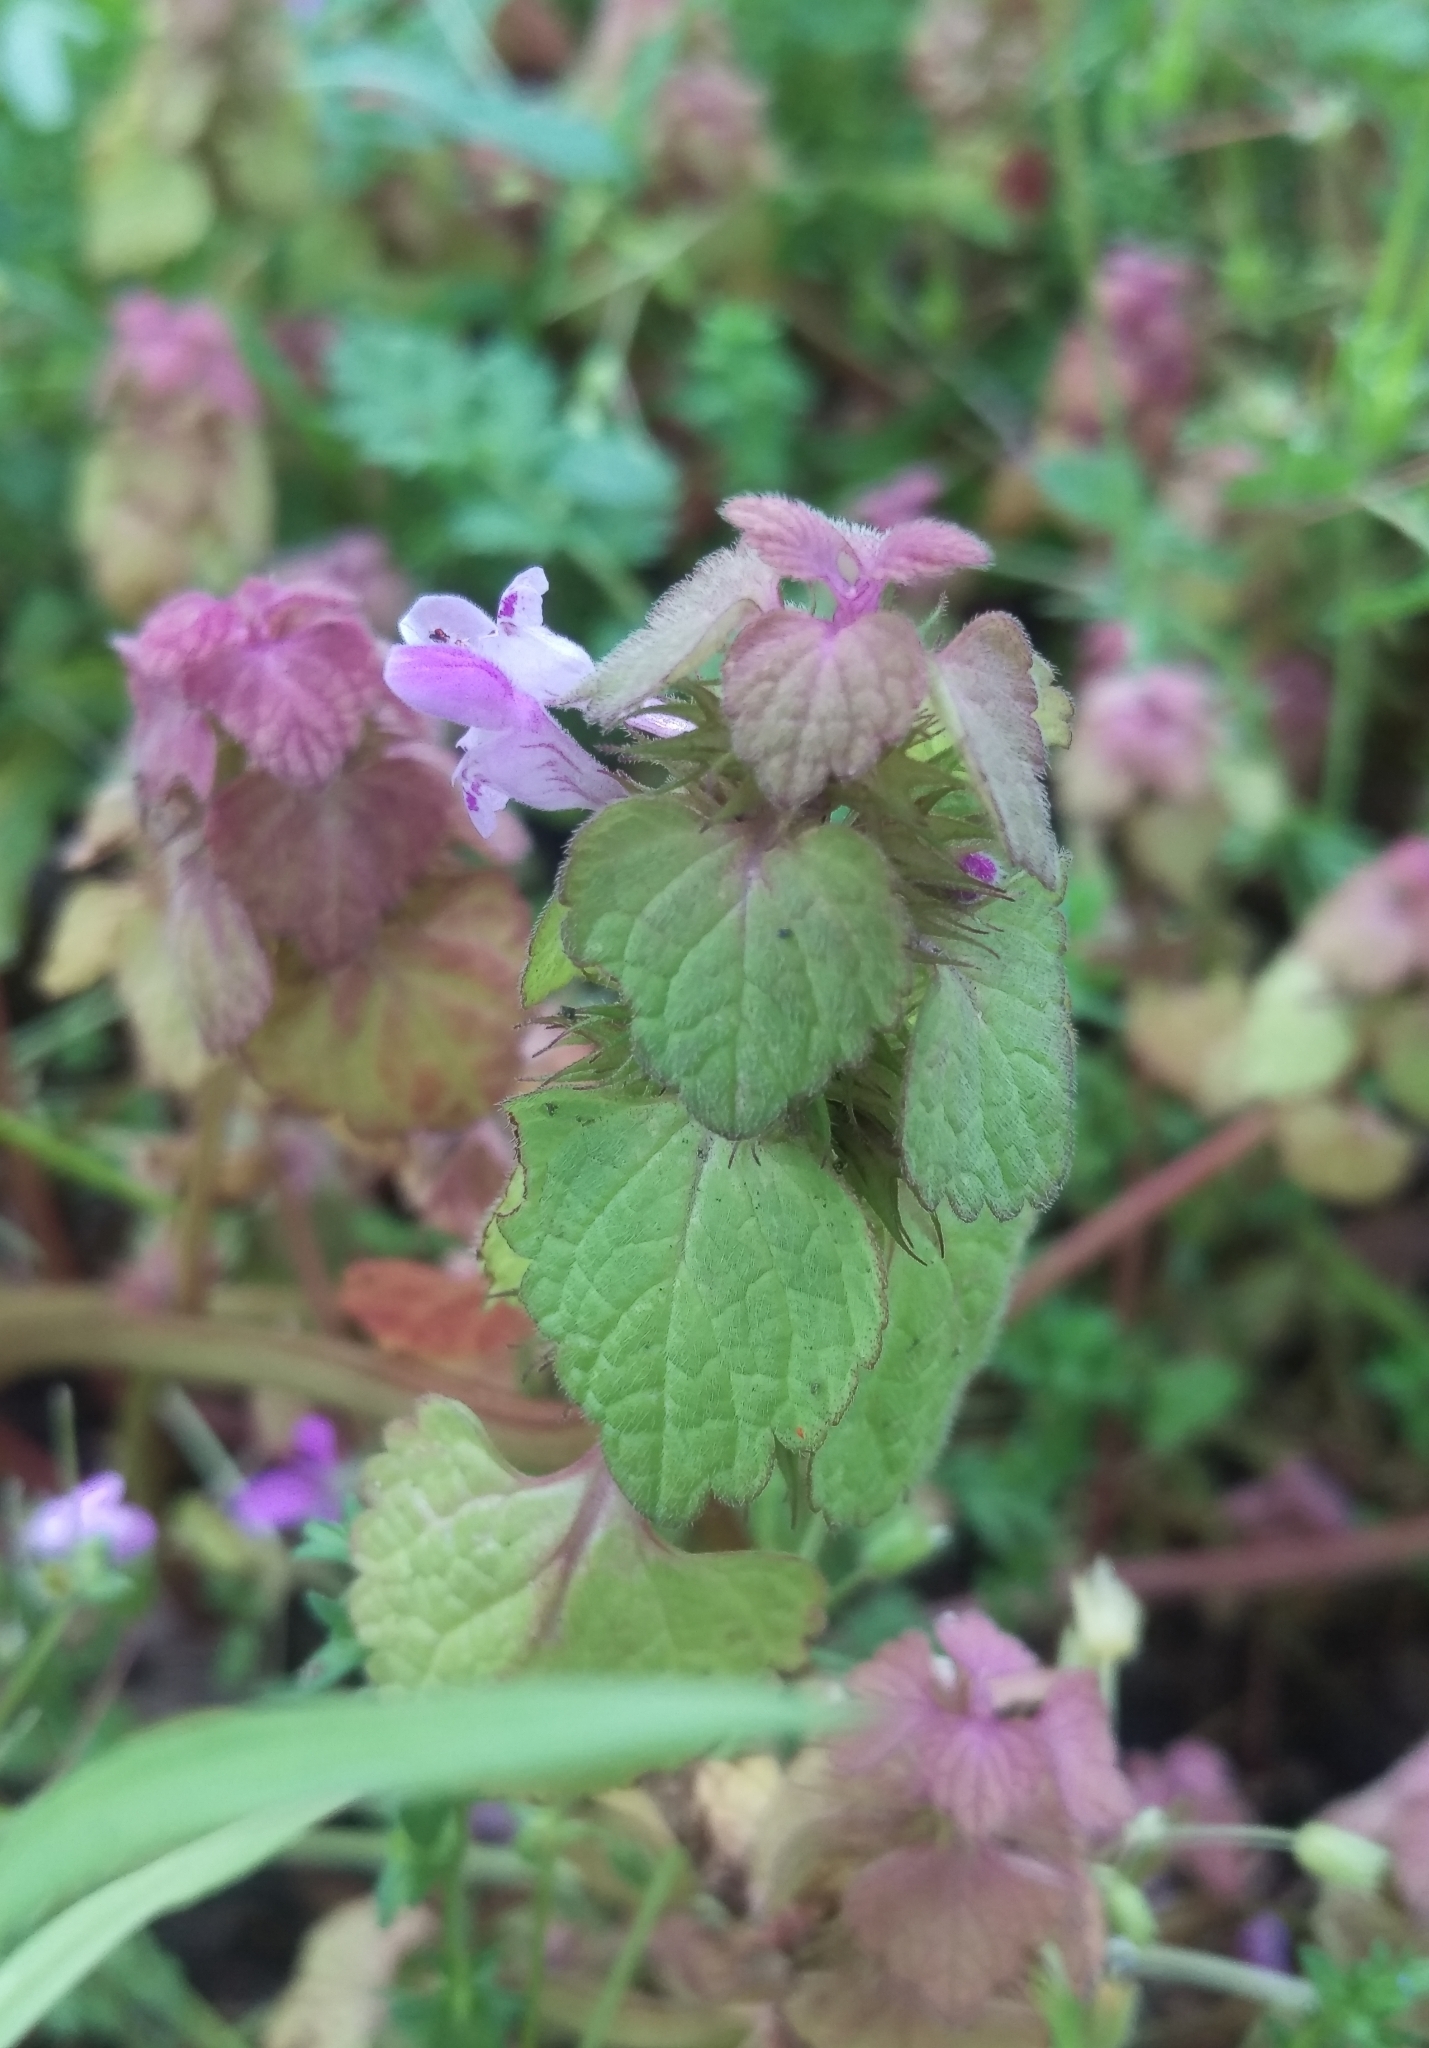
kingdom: Plantae
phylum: Tracheophyta
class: Magnoliopsida
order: Lamiales
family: Lamiaceae
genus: Lamium
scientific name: Lamium purpureum
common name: Red dead-nettle
